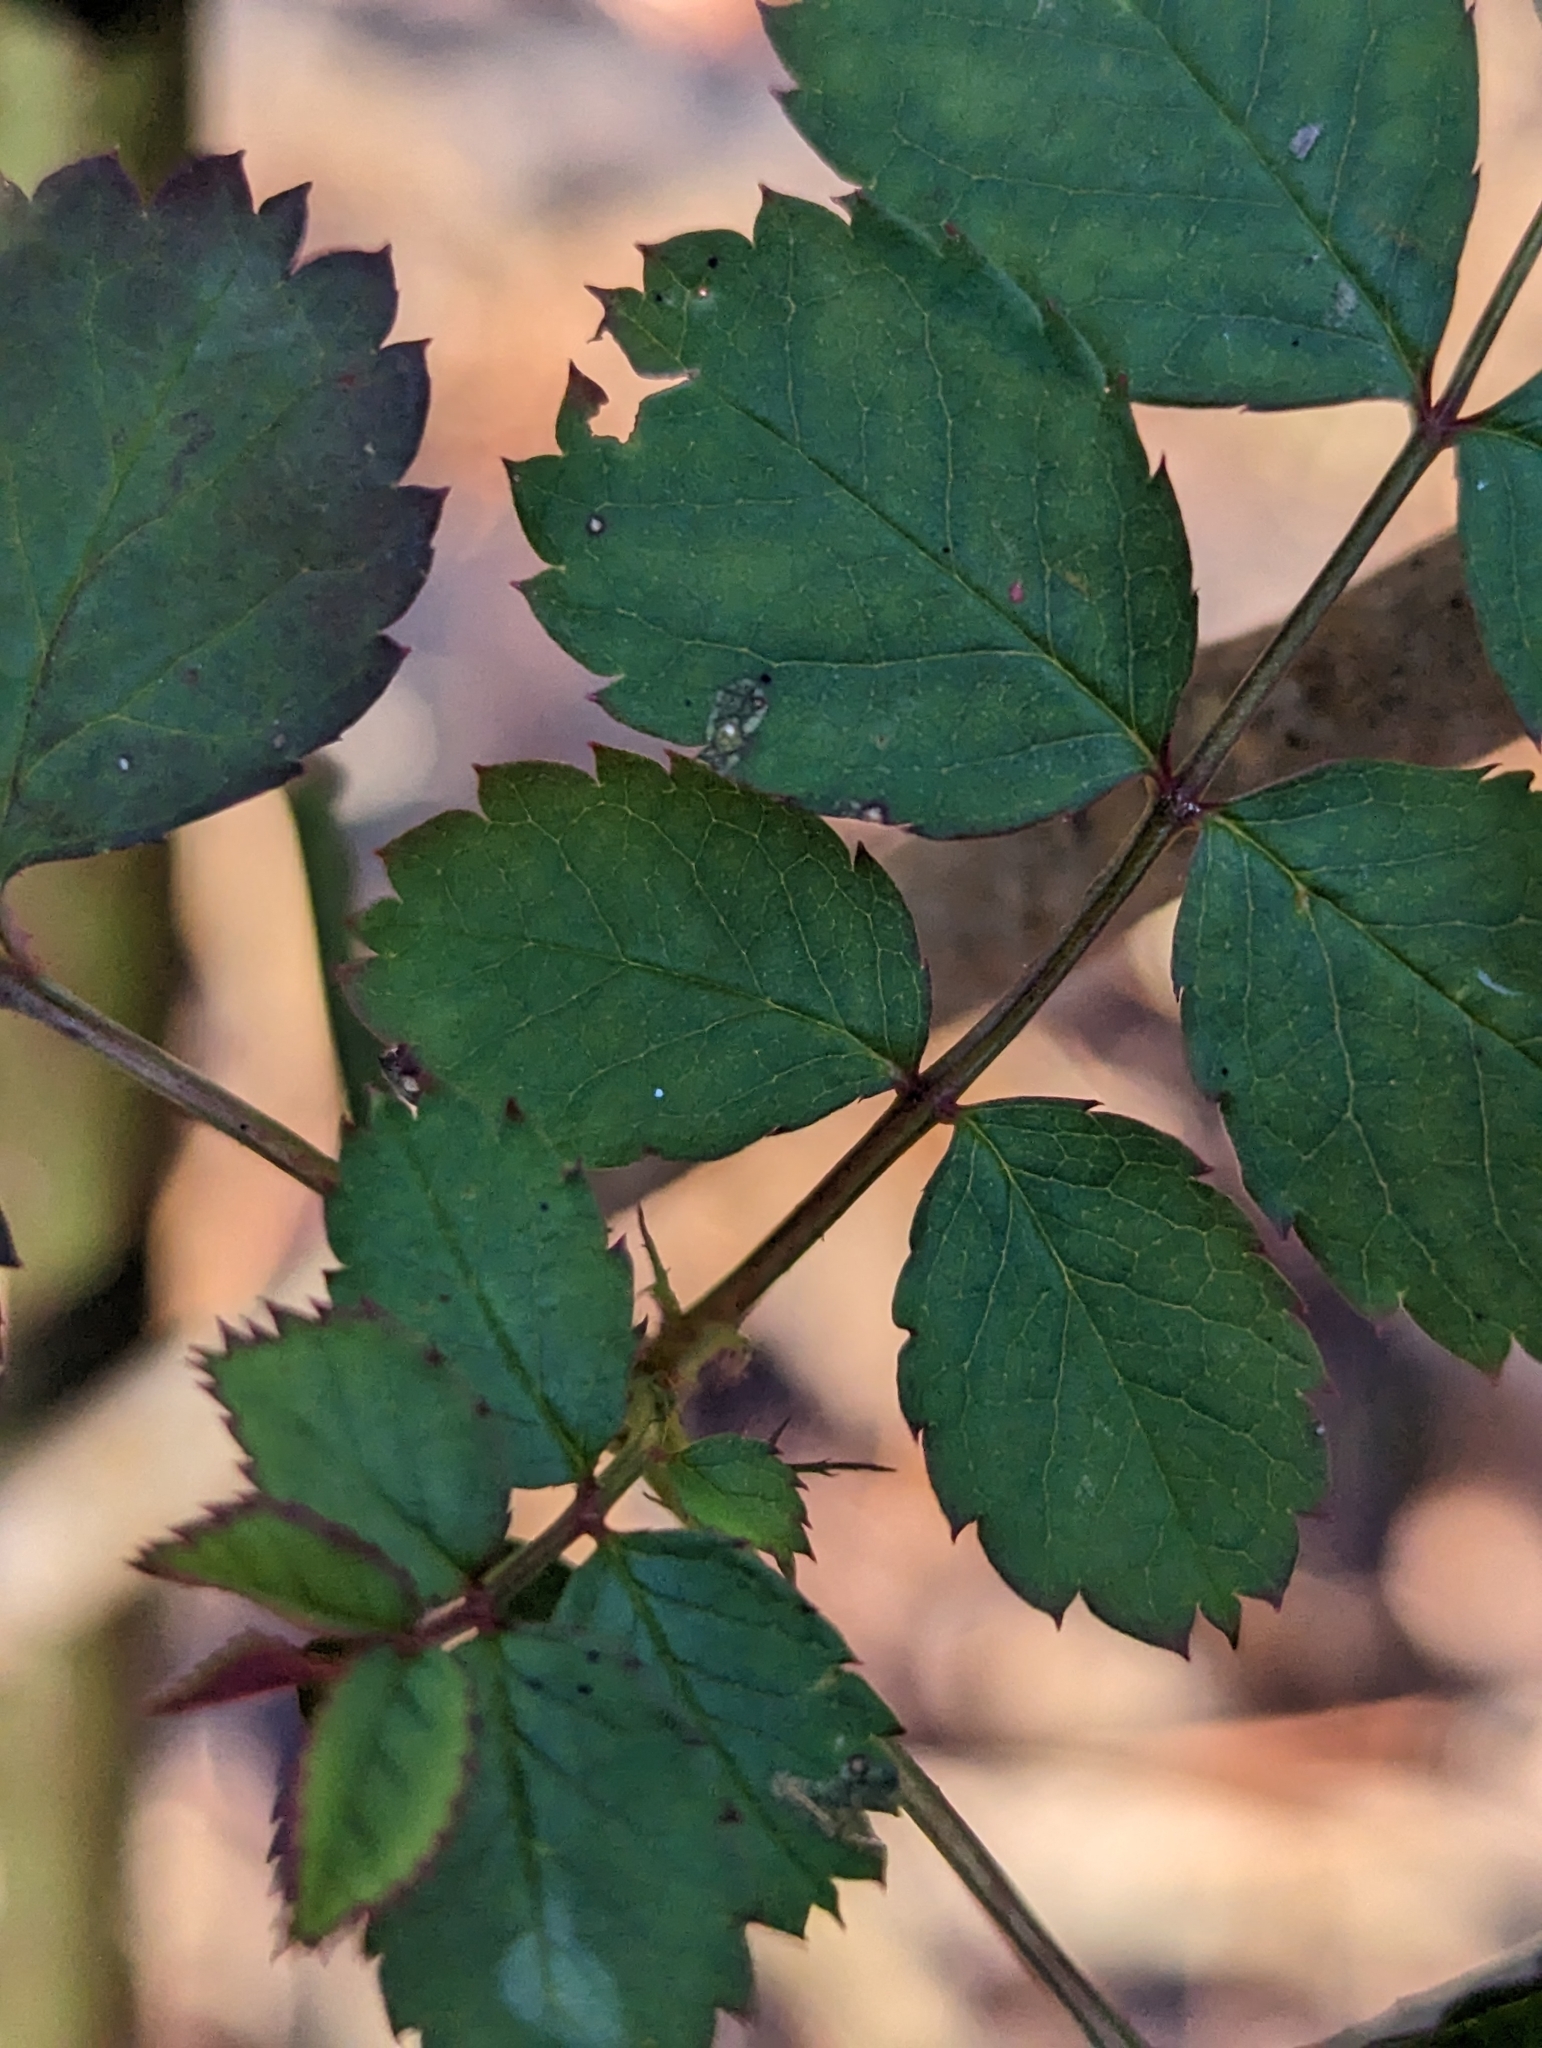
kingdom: Plantae
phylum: Tracheophyta
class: Magnoliopsida
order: Rosales
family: Rosaceae
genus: Rosa
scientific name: Rosa multiflora
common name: Multiflora rose
